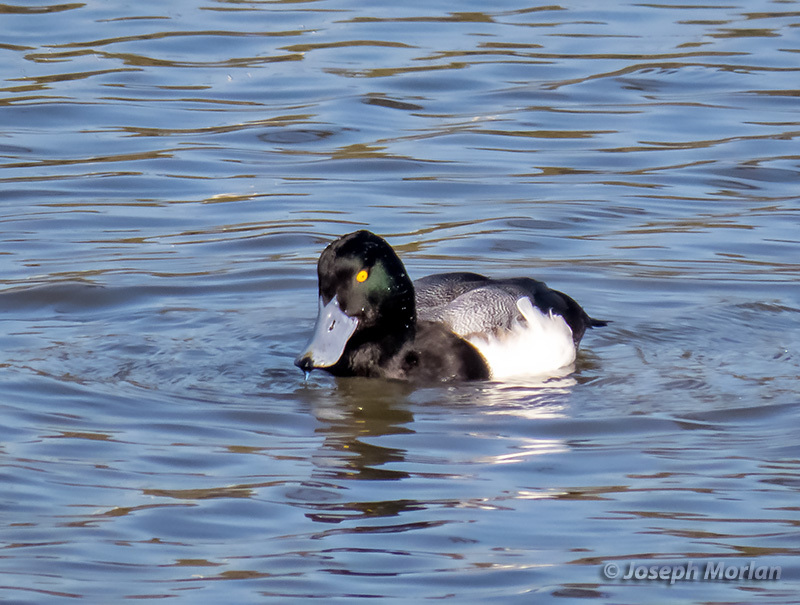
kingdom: Animalia
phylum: Chordata
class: Aves
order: Anseriformes
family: Anatidae
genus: Aythya
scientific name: Aythya marila
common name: Greater scaup
